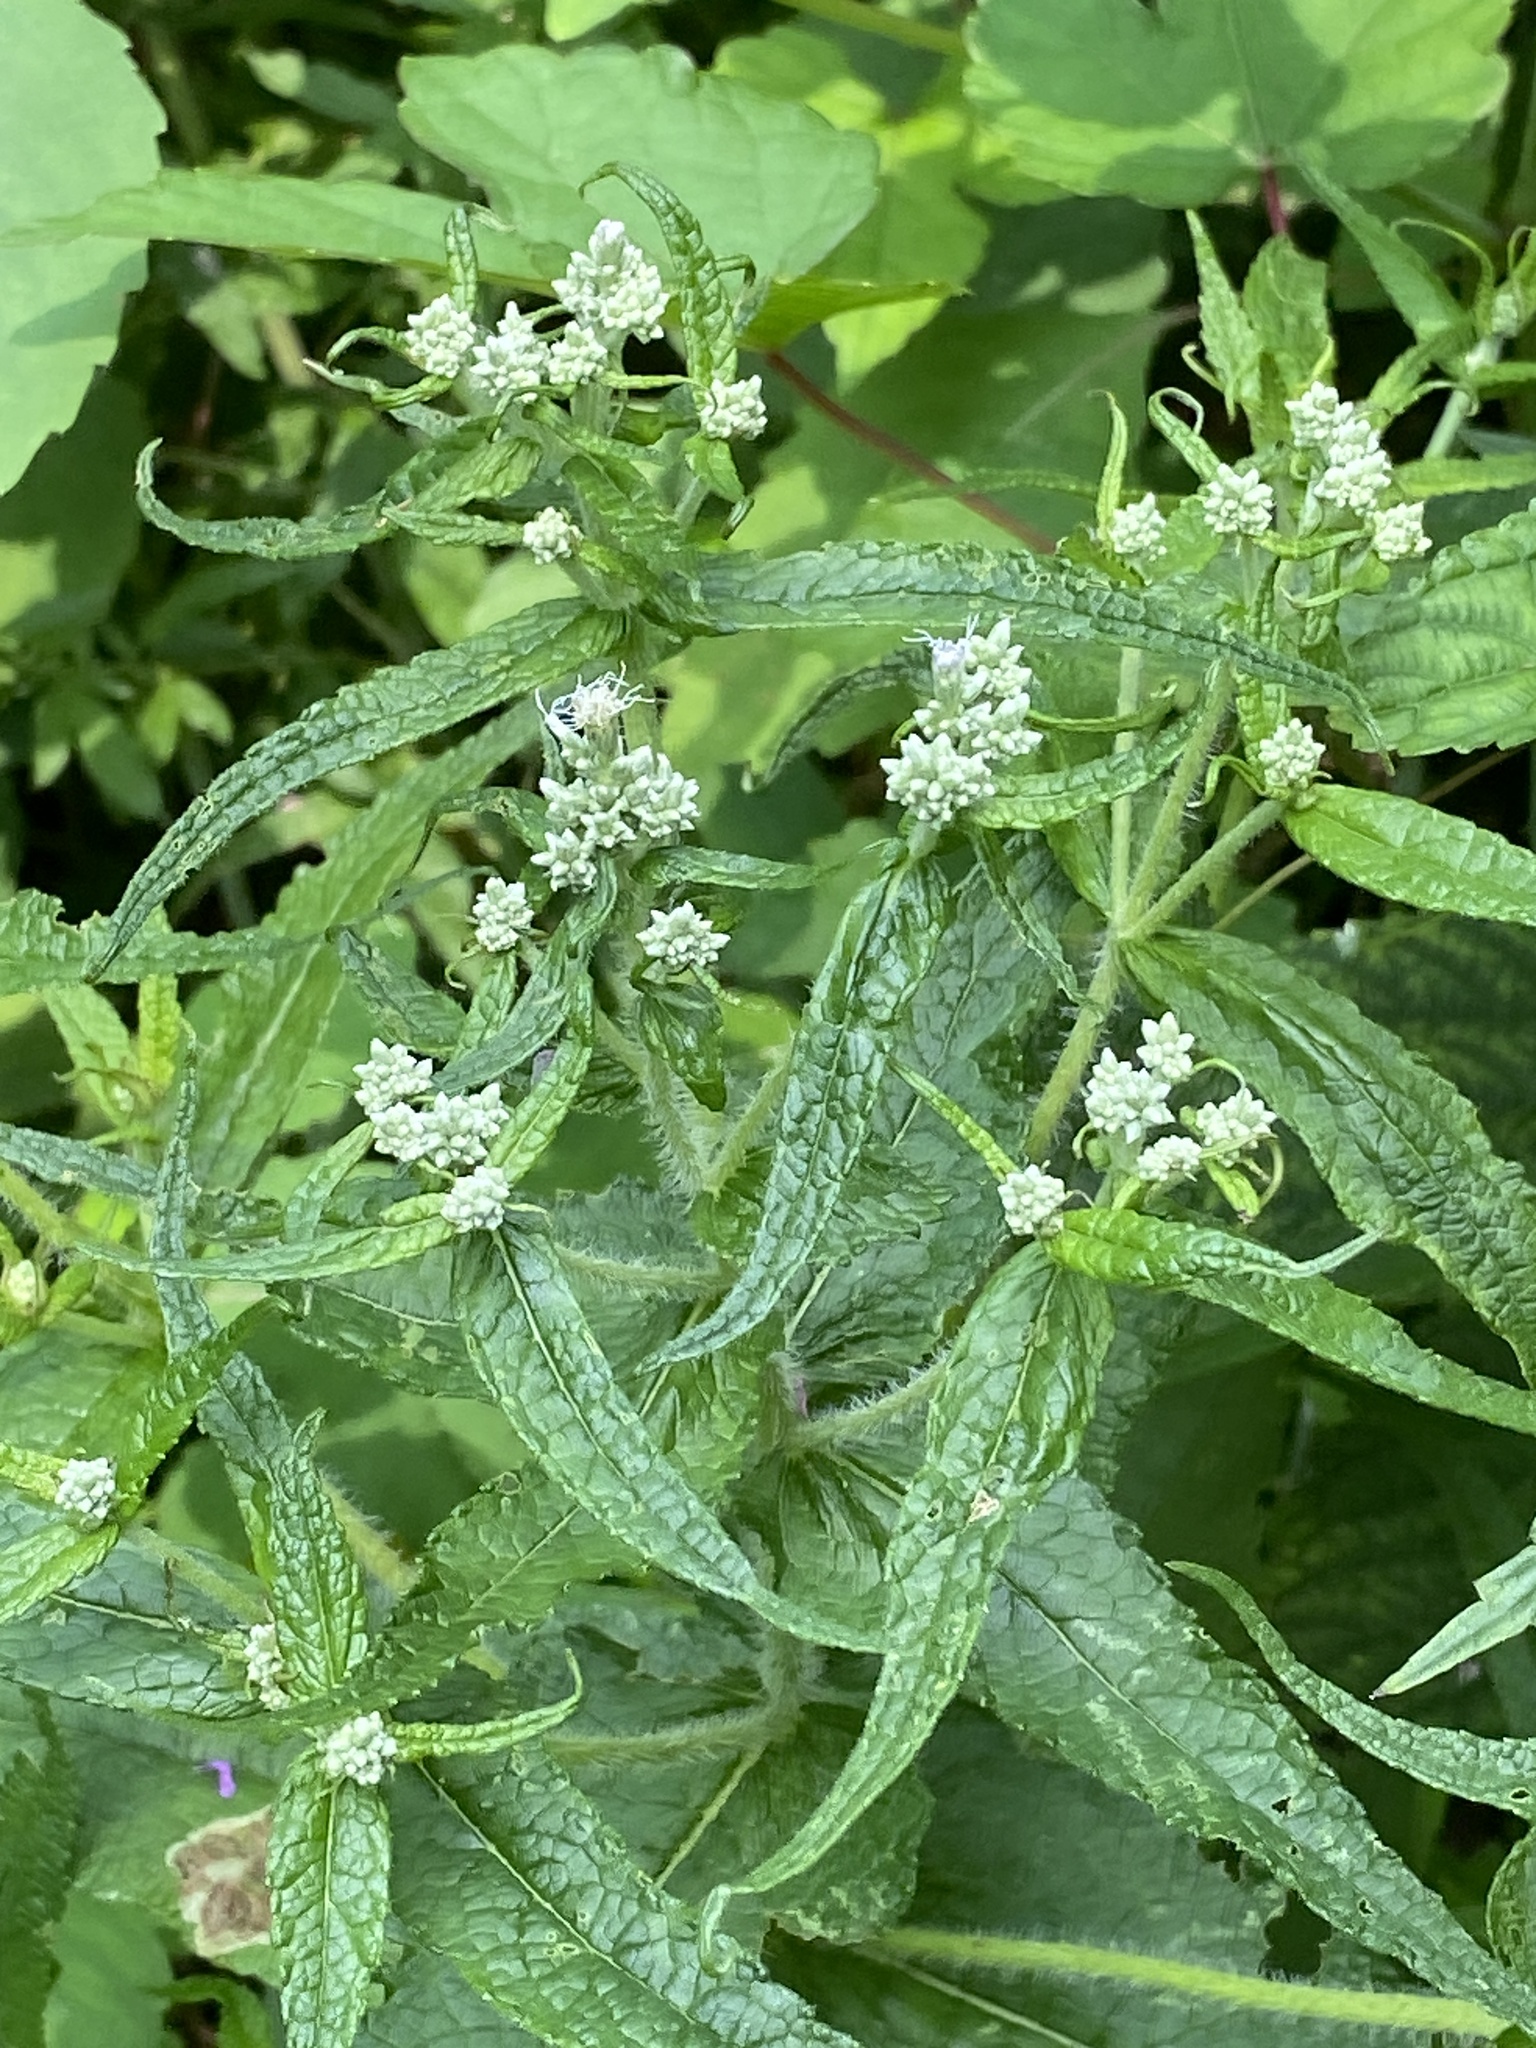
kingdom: Plantae
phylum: Tracheophyta
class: Magnoliopsida
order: Asterales
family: Asteraceae
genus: Eupatorium
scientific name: Eupatorium perfoliatum
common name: Boneset
